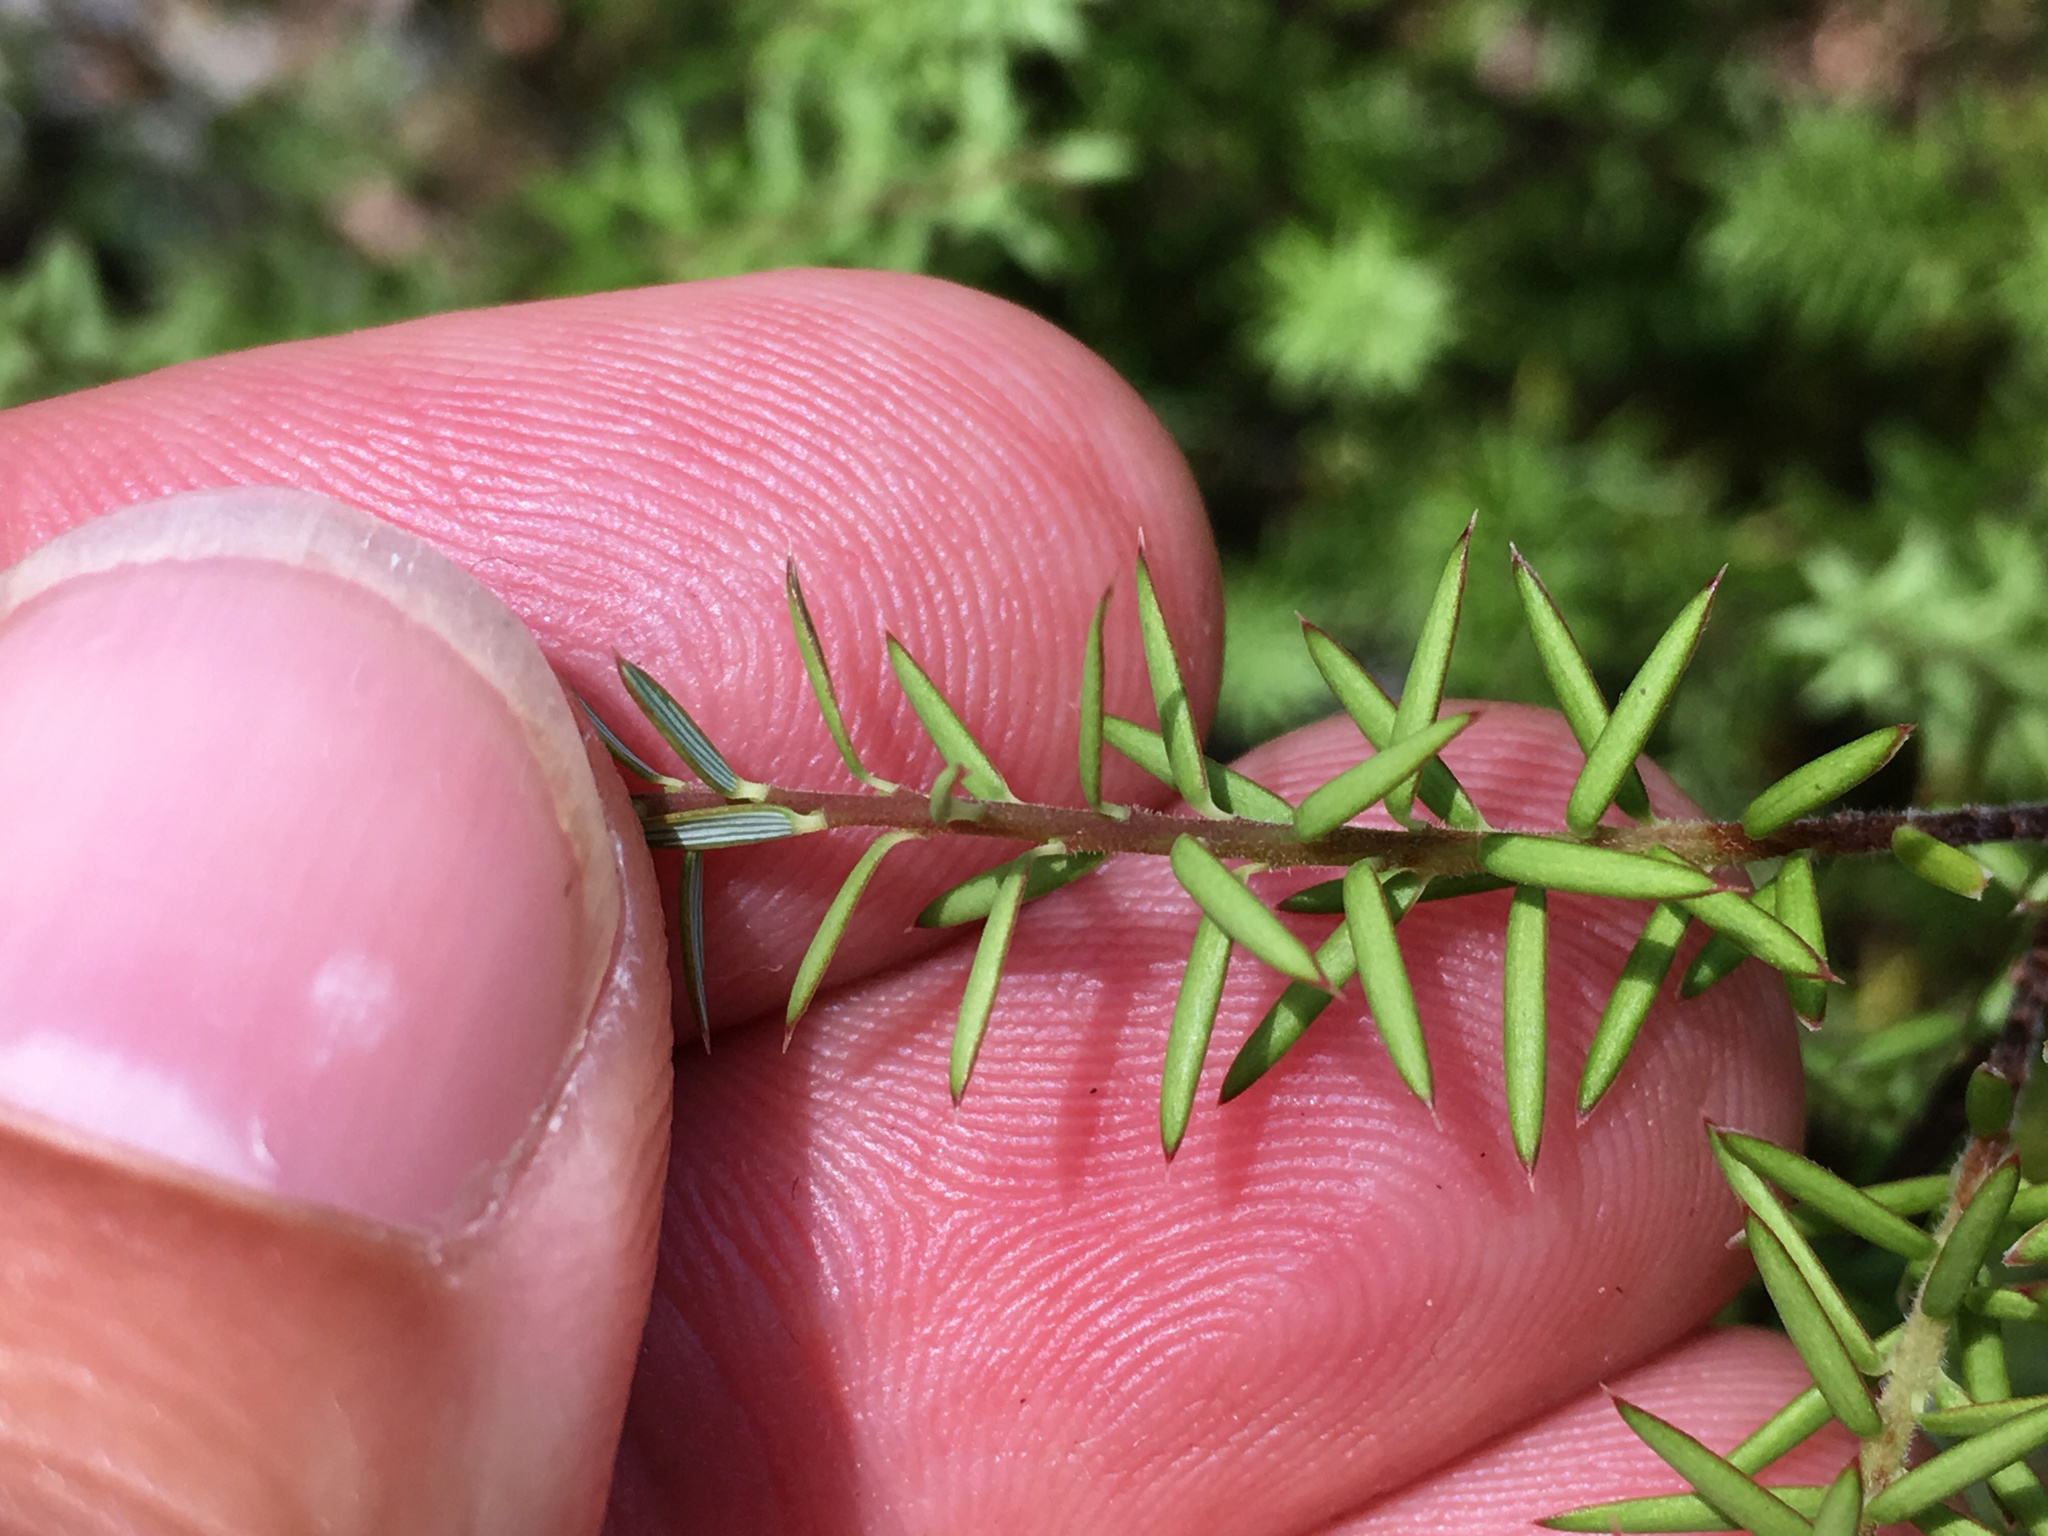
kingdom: Plantae
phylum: Tracheophyta
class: Magnoliopsida
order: Ericales
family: Ericaceae
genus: Leptecophylla
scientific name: Leptecophylla juniperina
